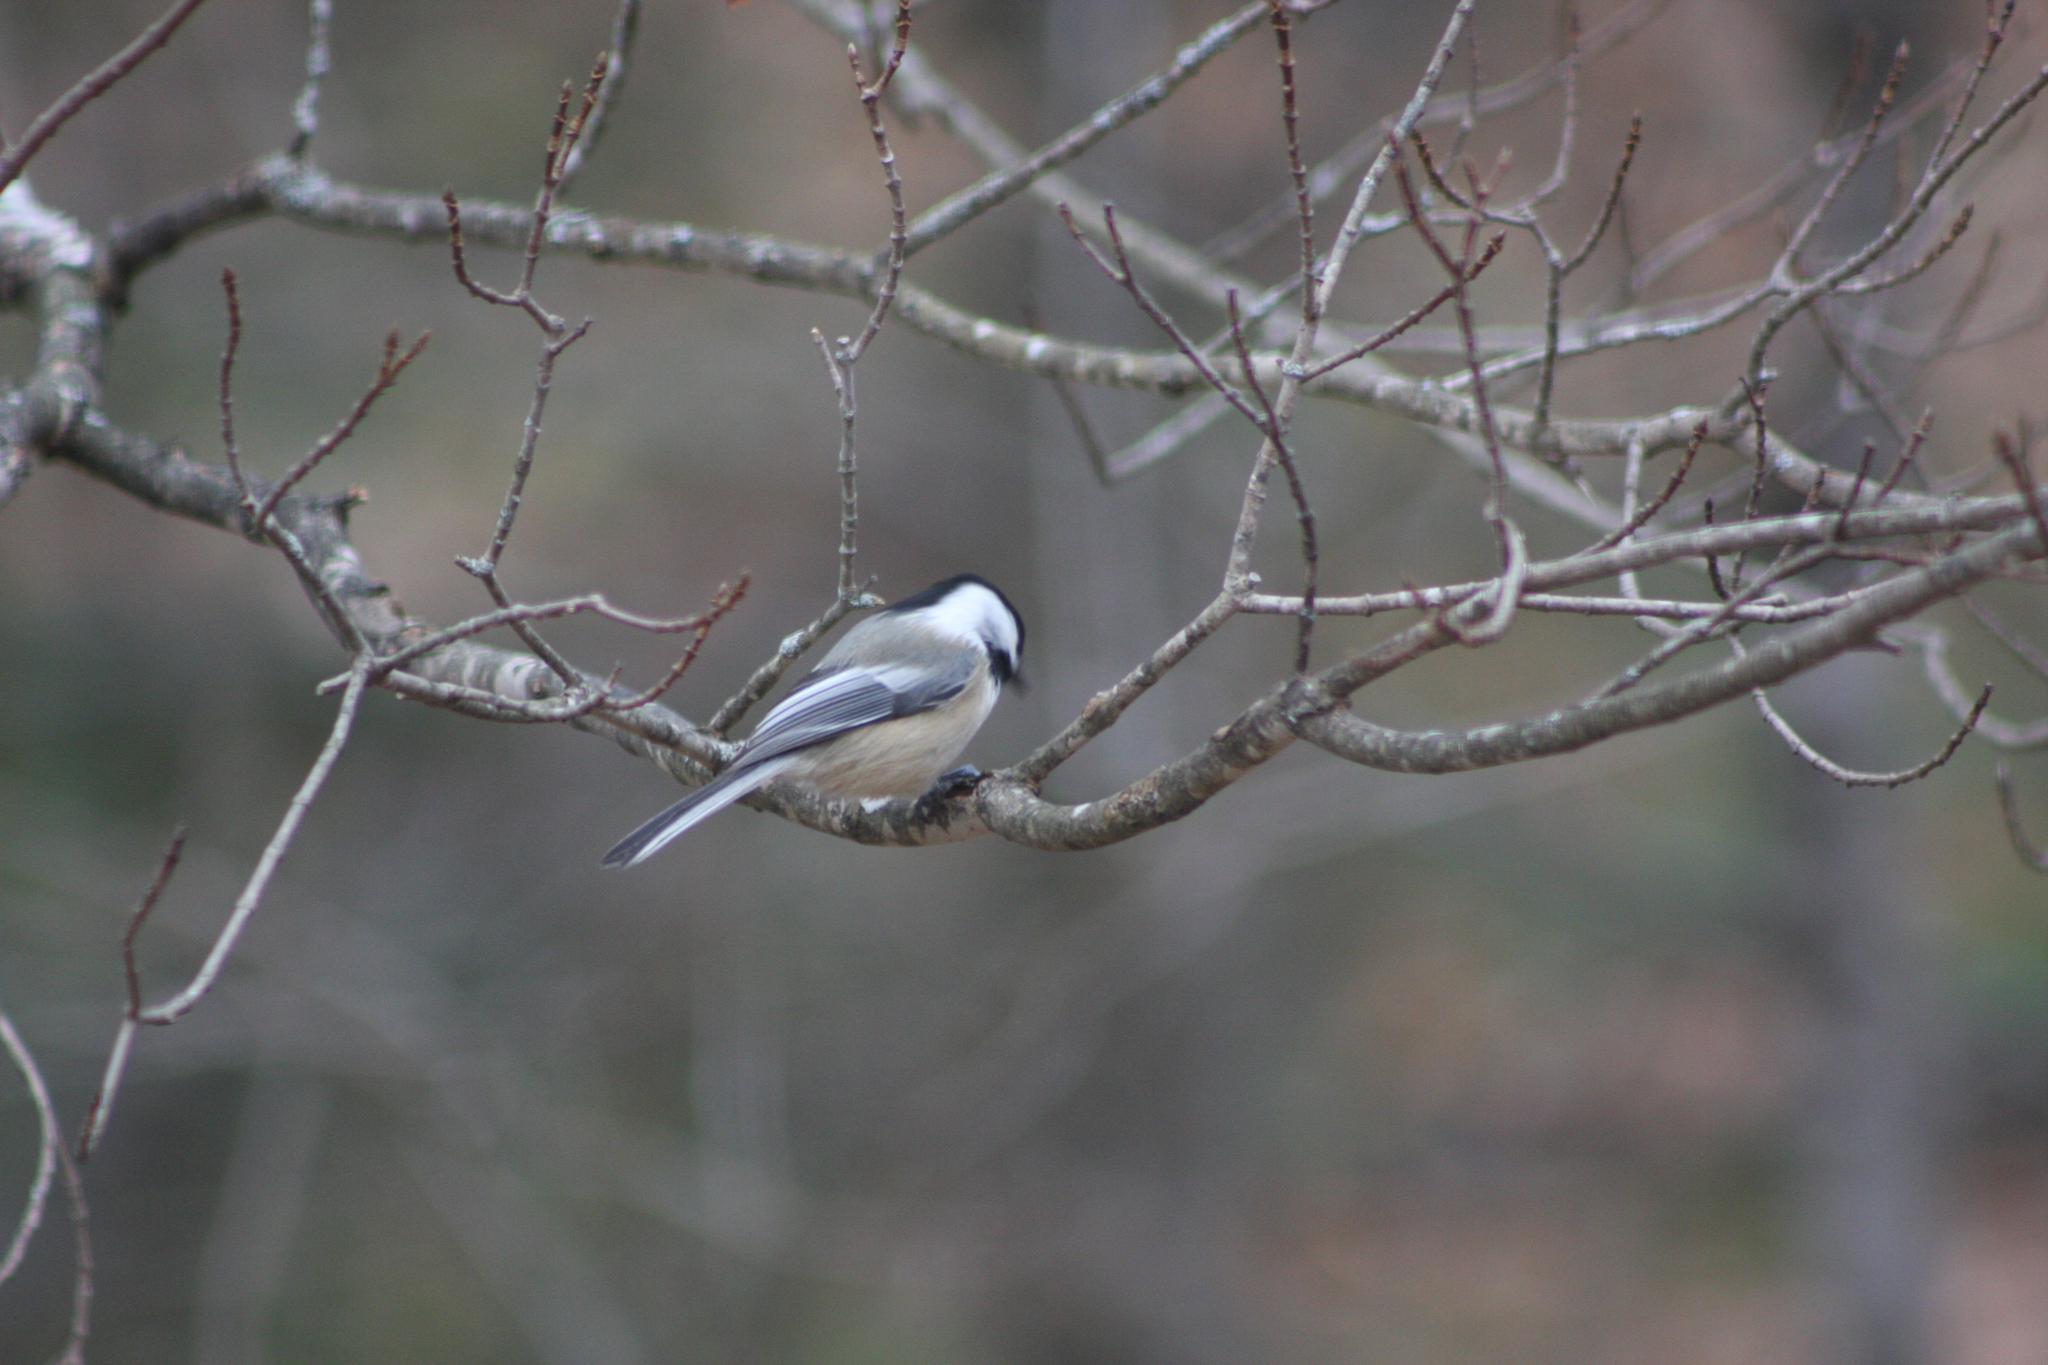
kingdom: Animalia
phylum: Chordata
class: Aves
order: Passeriformes
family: Paridae
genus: Poecile
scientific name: Poecile atricapillus
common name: Black-capped chickadee
